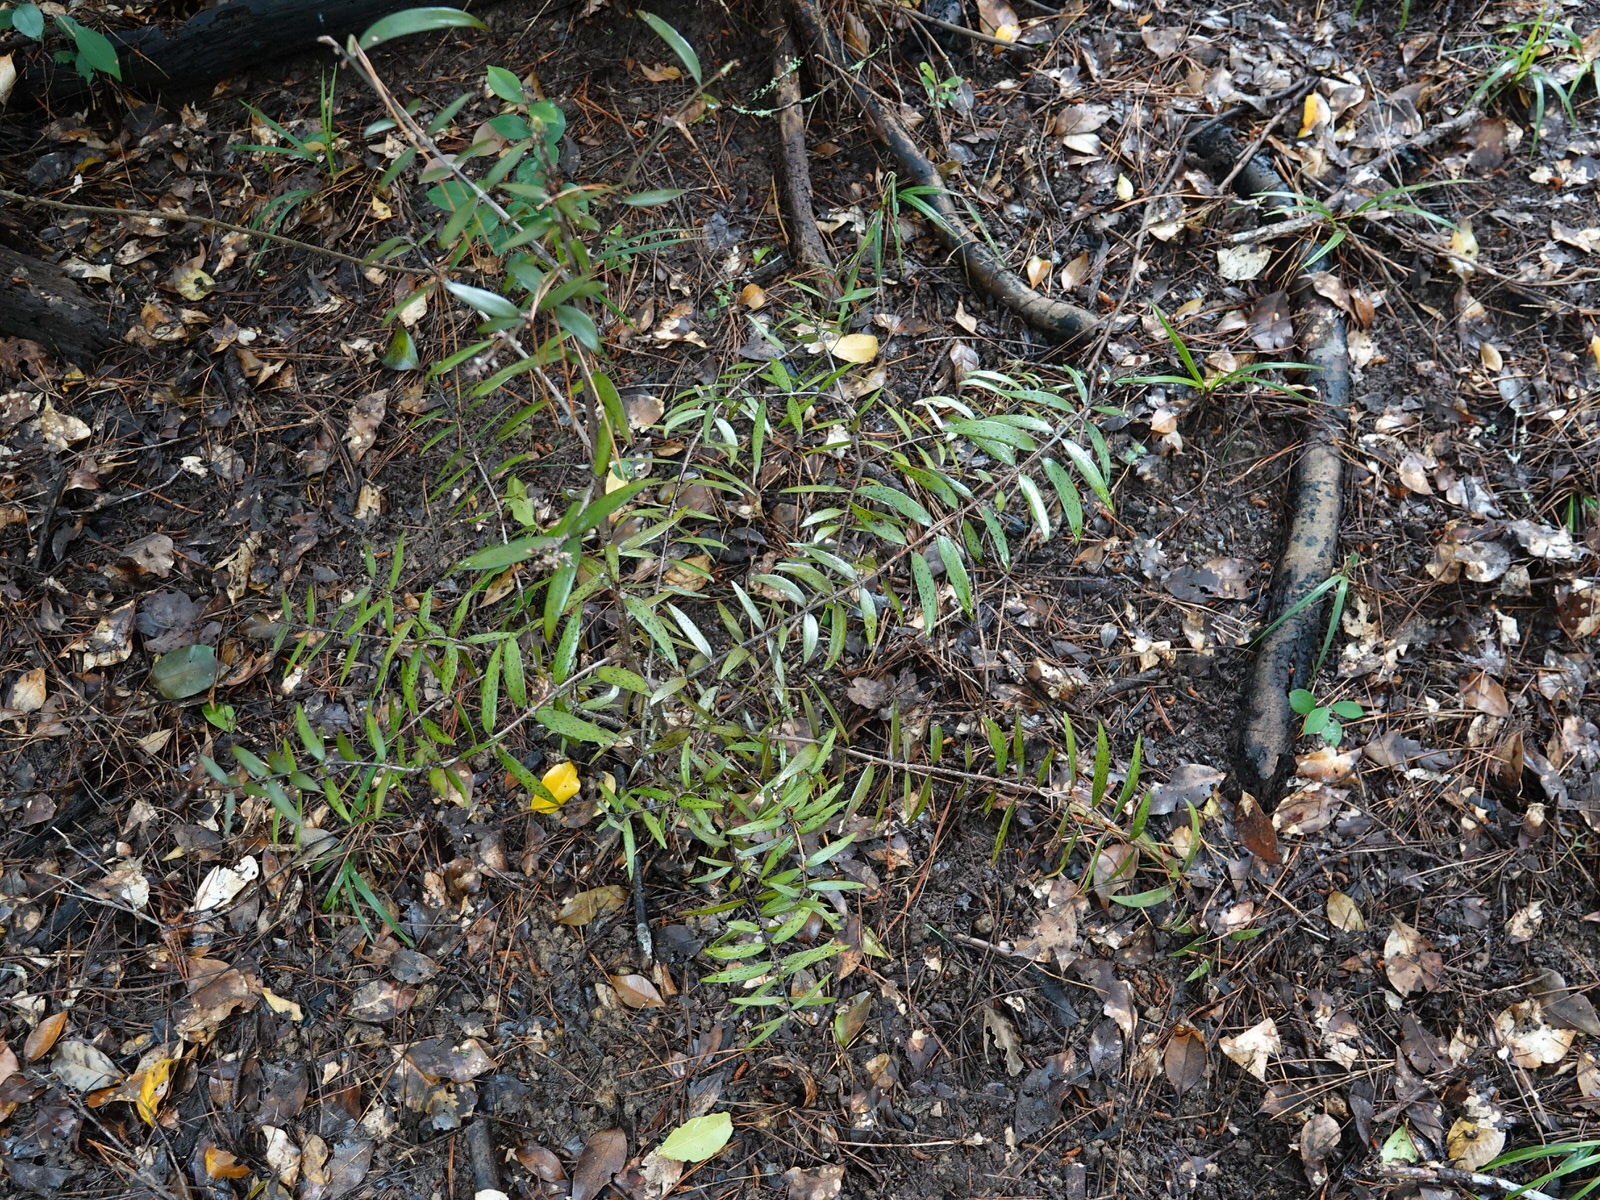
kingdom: Plantae
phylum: Tracheophyta
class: Pinopsida
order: Pinales
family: Araucariaceae
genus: Agathis
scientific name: Agathis australis
